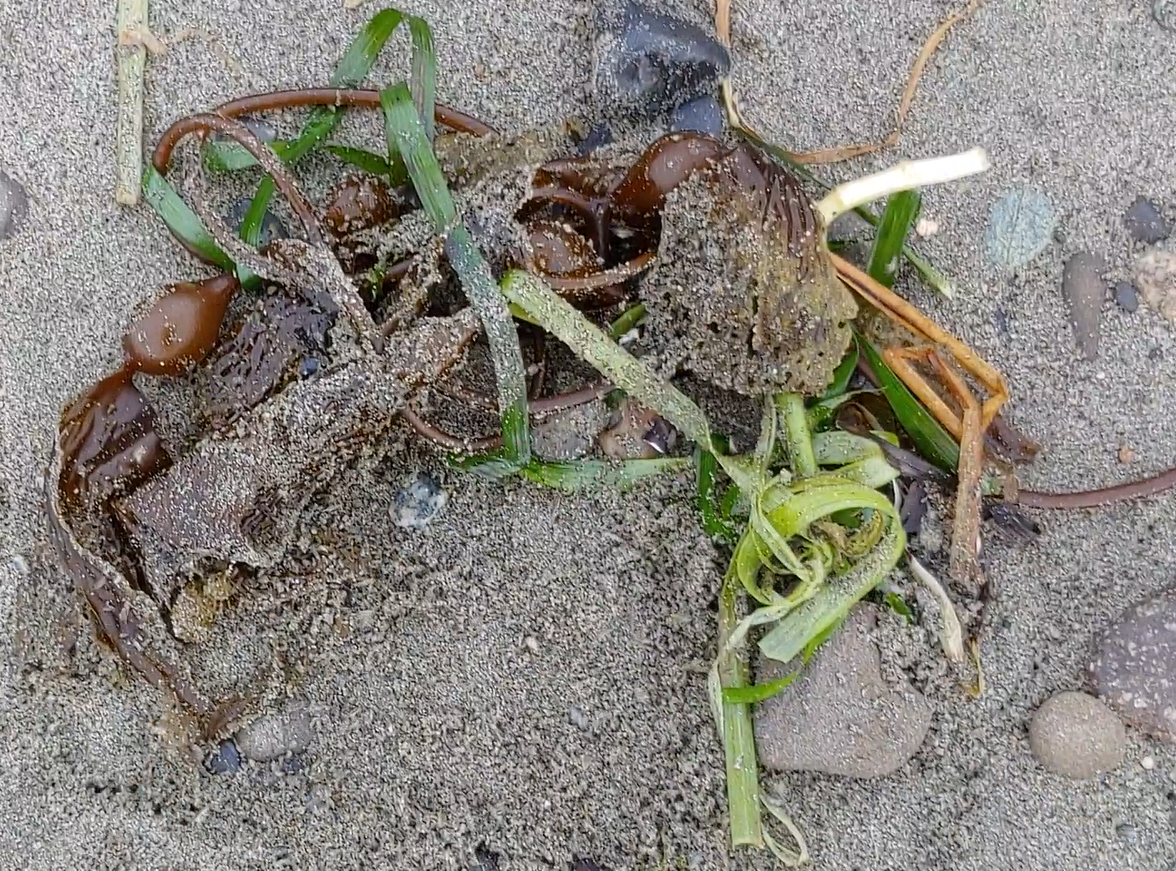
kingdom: Chromista
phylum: Ochrophyta
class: Phaeophyceae
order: Laminariales
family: Laminariaceae
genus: Macrocystis
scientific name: Macrocystis pyrifera
